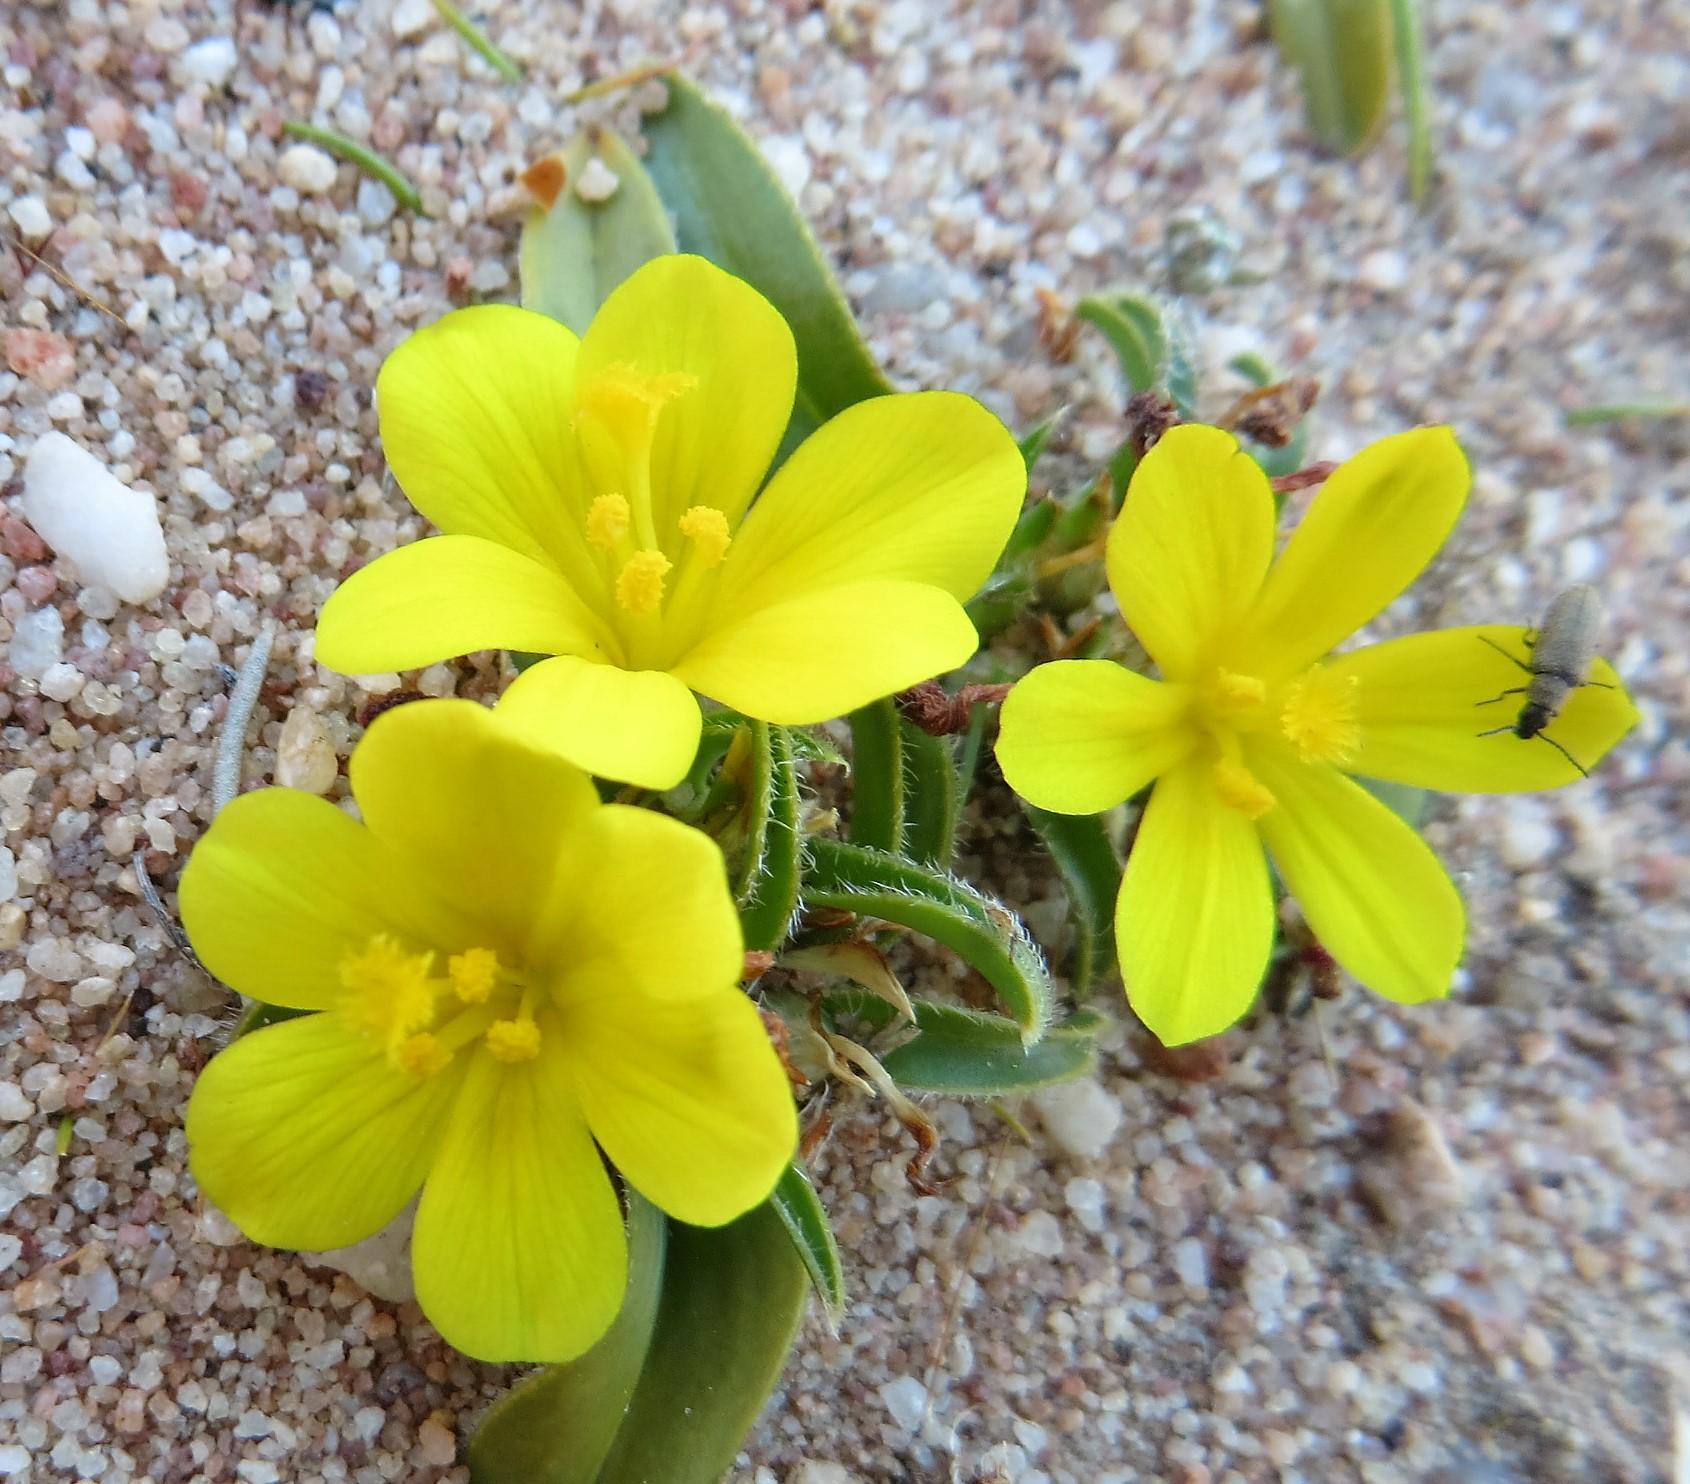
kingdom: Plantae
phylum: Tracheophyta
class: Liliopsida
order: Asparagales
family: Iridaceae
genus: Moraea
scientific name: Moraea luteoalba
